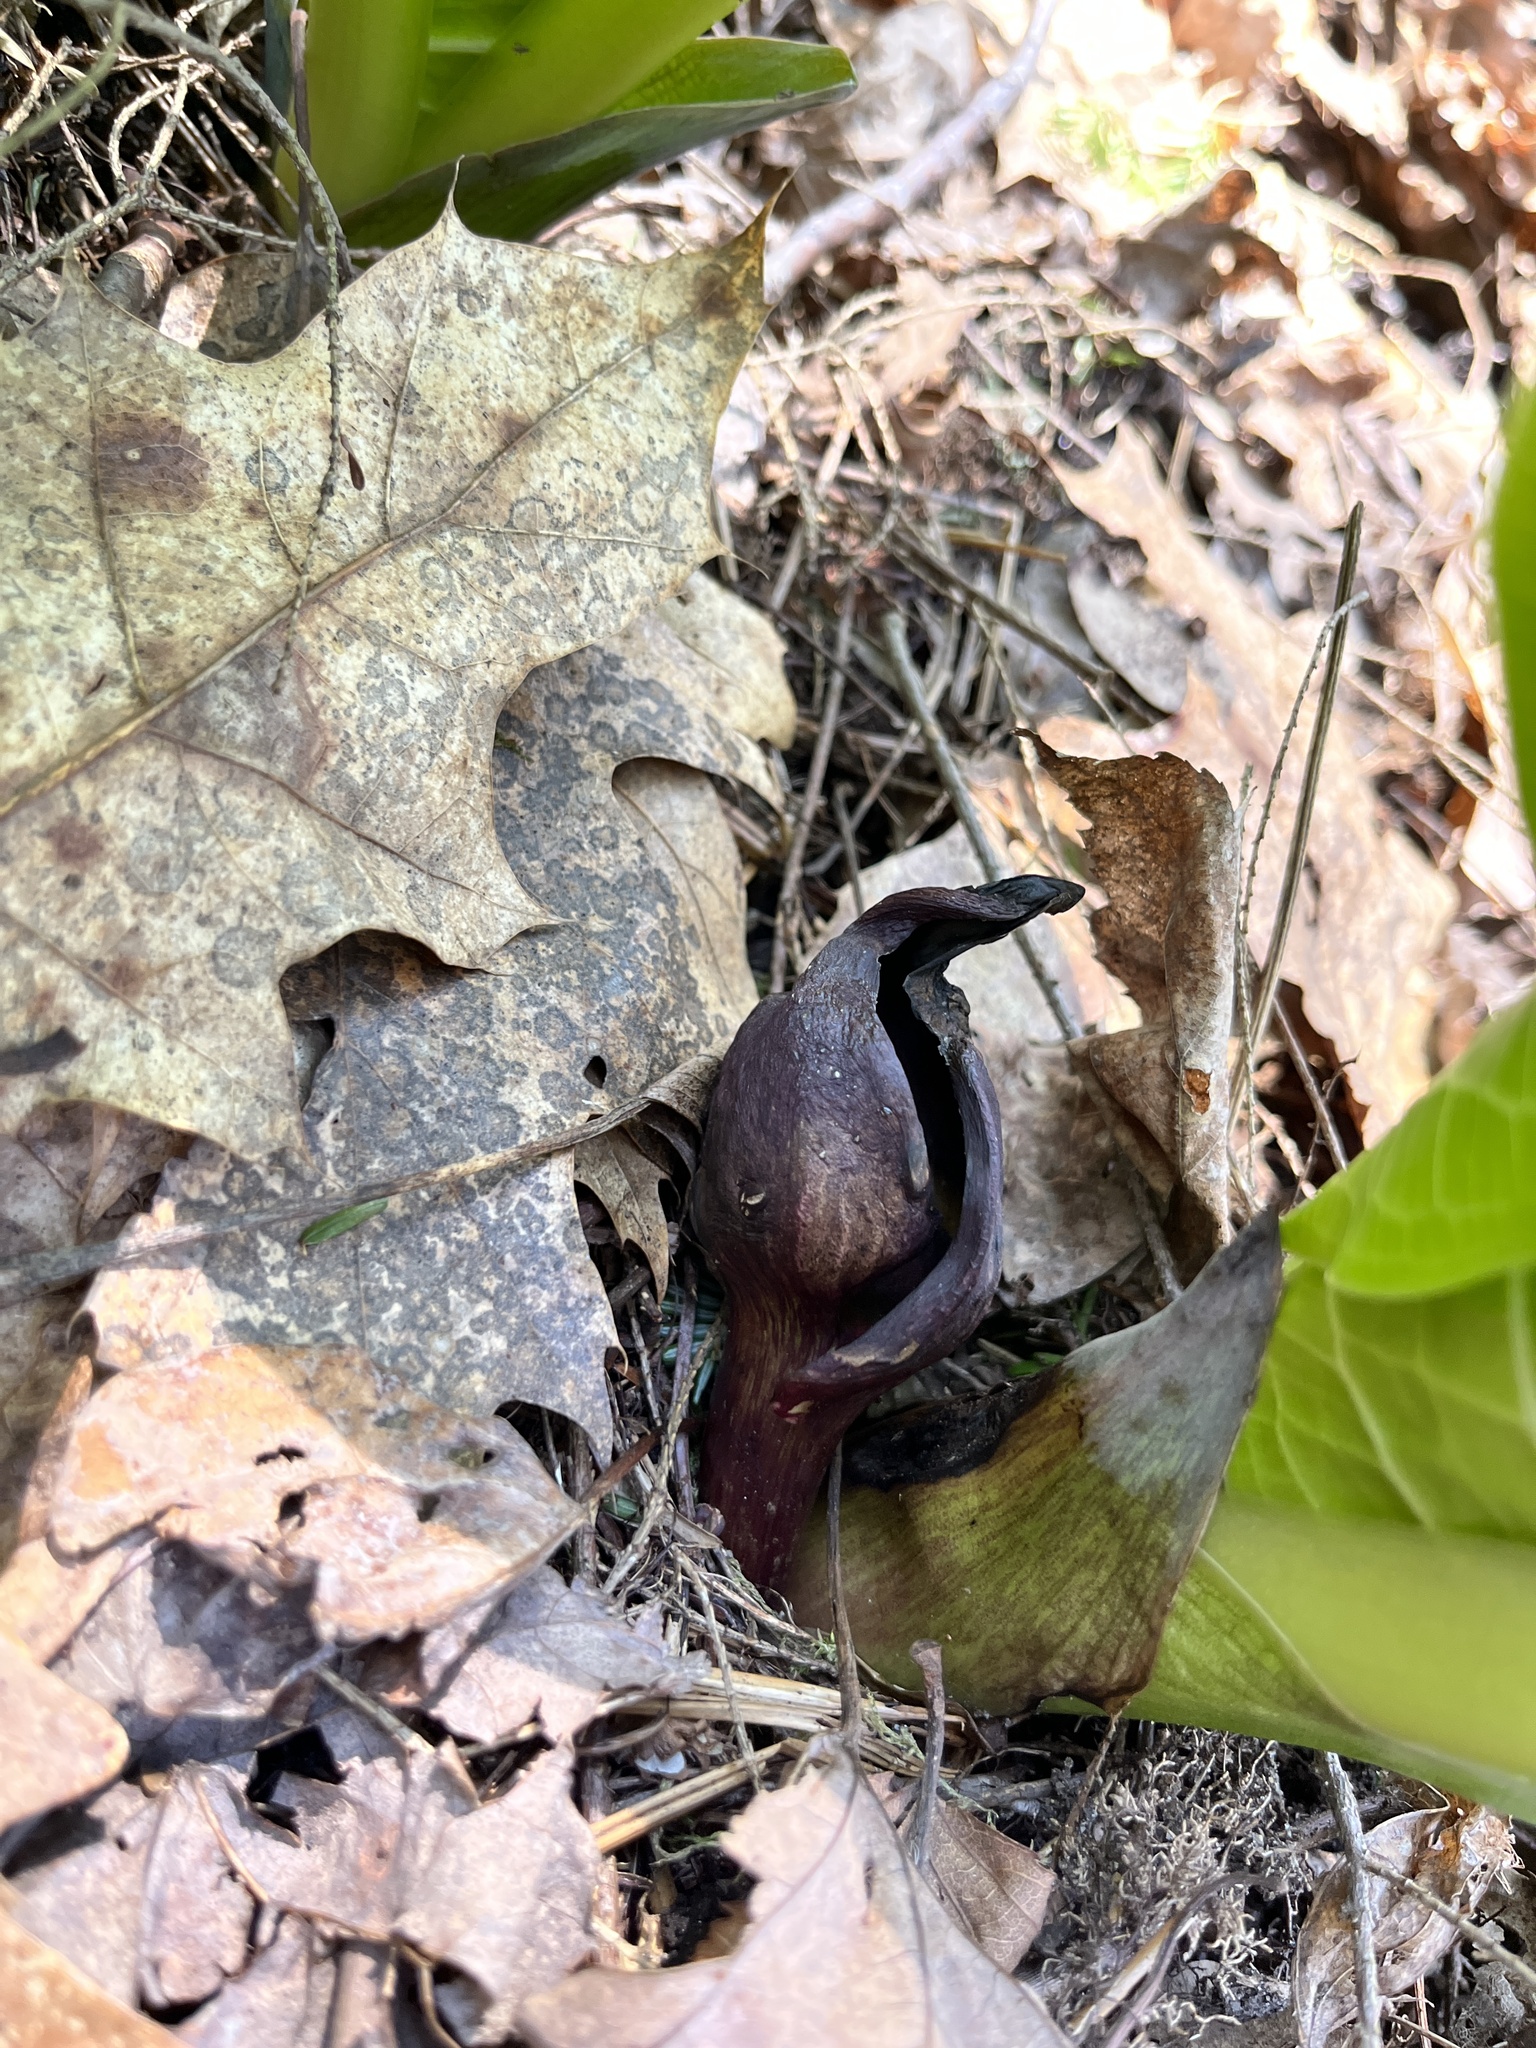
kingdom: Plantae
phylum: Tracheophyta
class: Liliopsida
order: Alismatales
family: Araceae
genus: Symplocarpus
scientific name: Symplocarpus foetidus
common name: Eastern skunk cabbage
